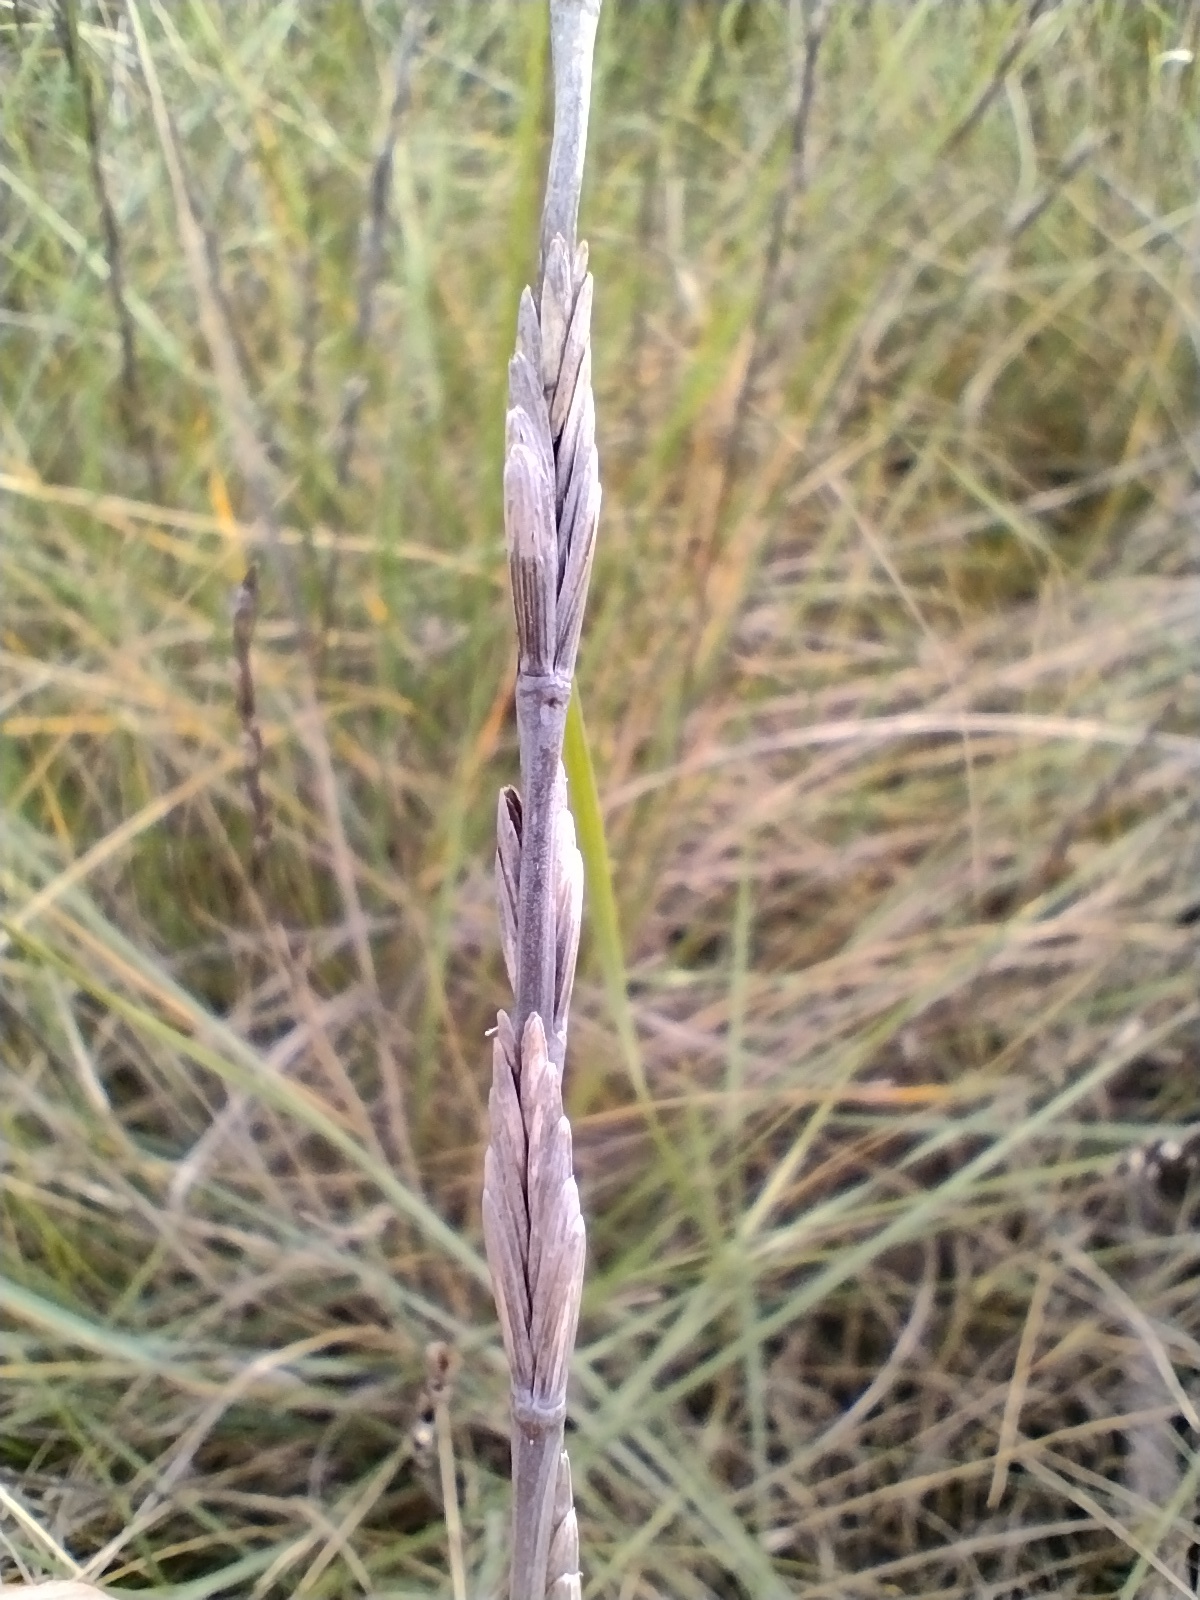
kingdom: Plantae
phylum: Tracheophyta
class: Liliopsida
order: Poales
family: Poaceae
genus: Thinopyrum
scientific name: Thinopyrum junceum
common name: Russian wheatgrass
